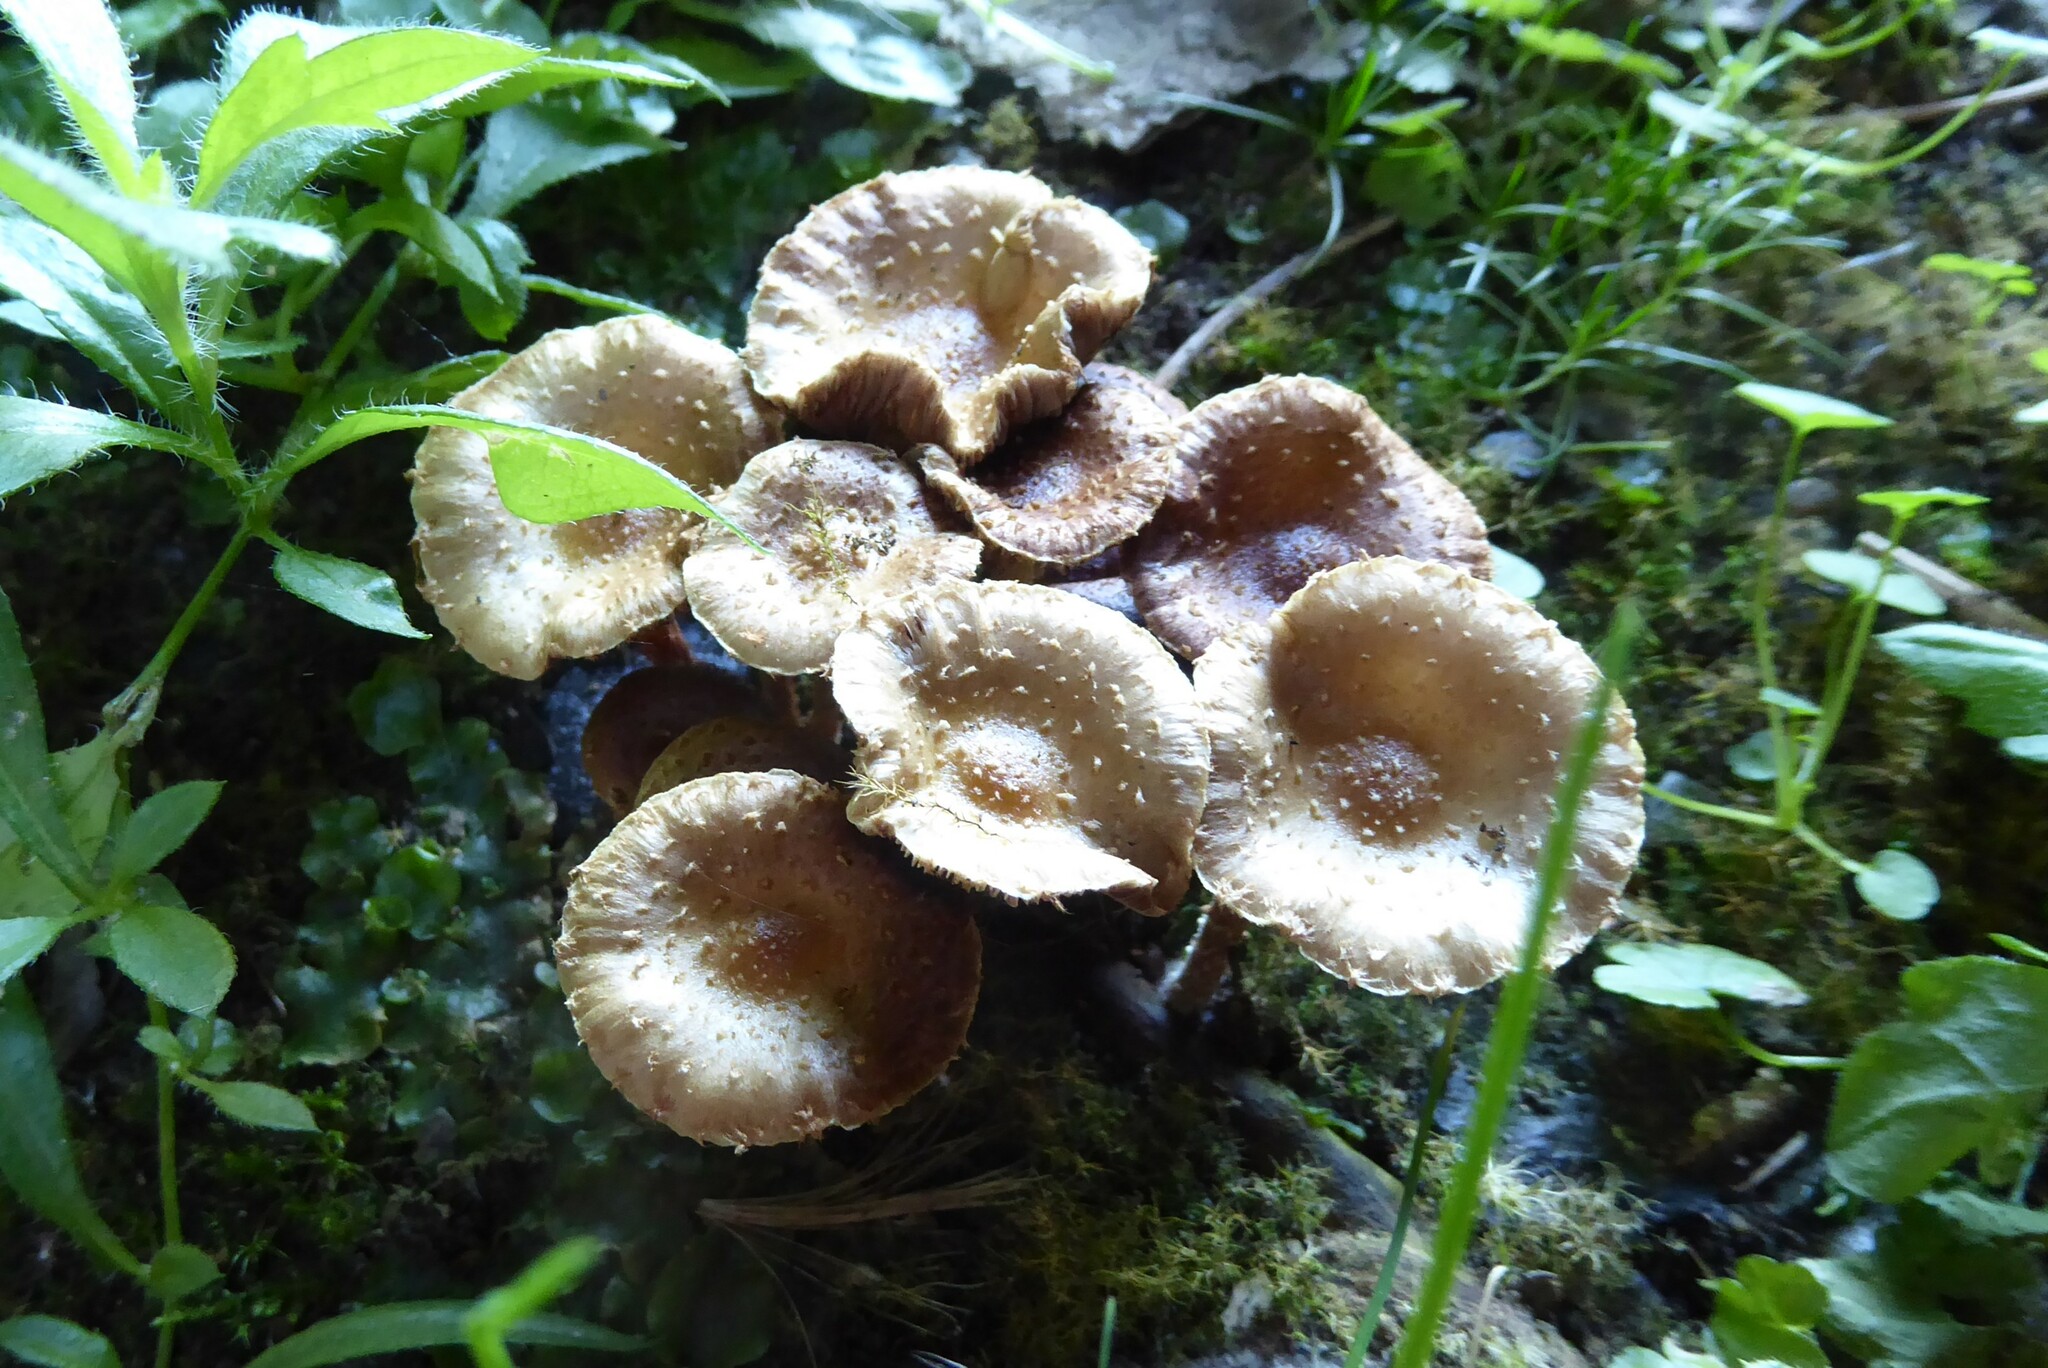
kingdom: Fungi
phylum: Basidiomycota
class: Agaricomycetes
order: Agaricales
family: Strophariaceae
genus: Pholiota
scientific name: Pholiota subflammans
